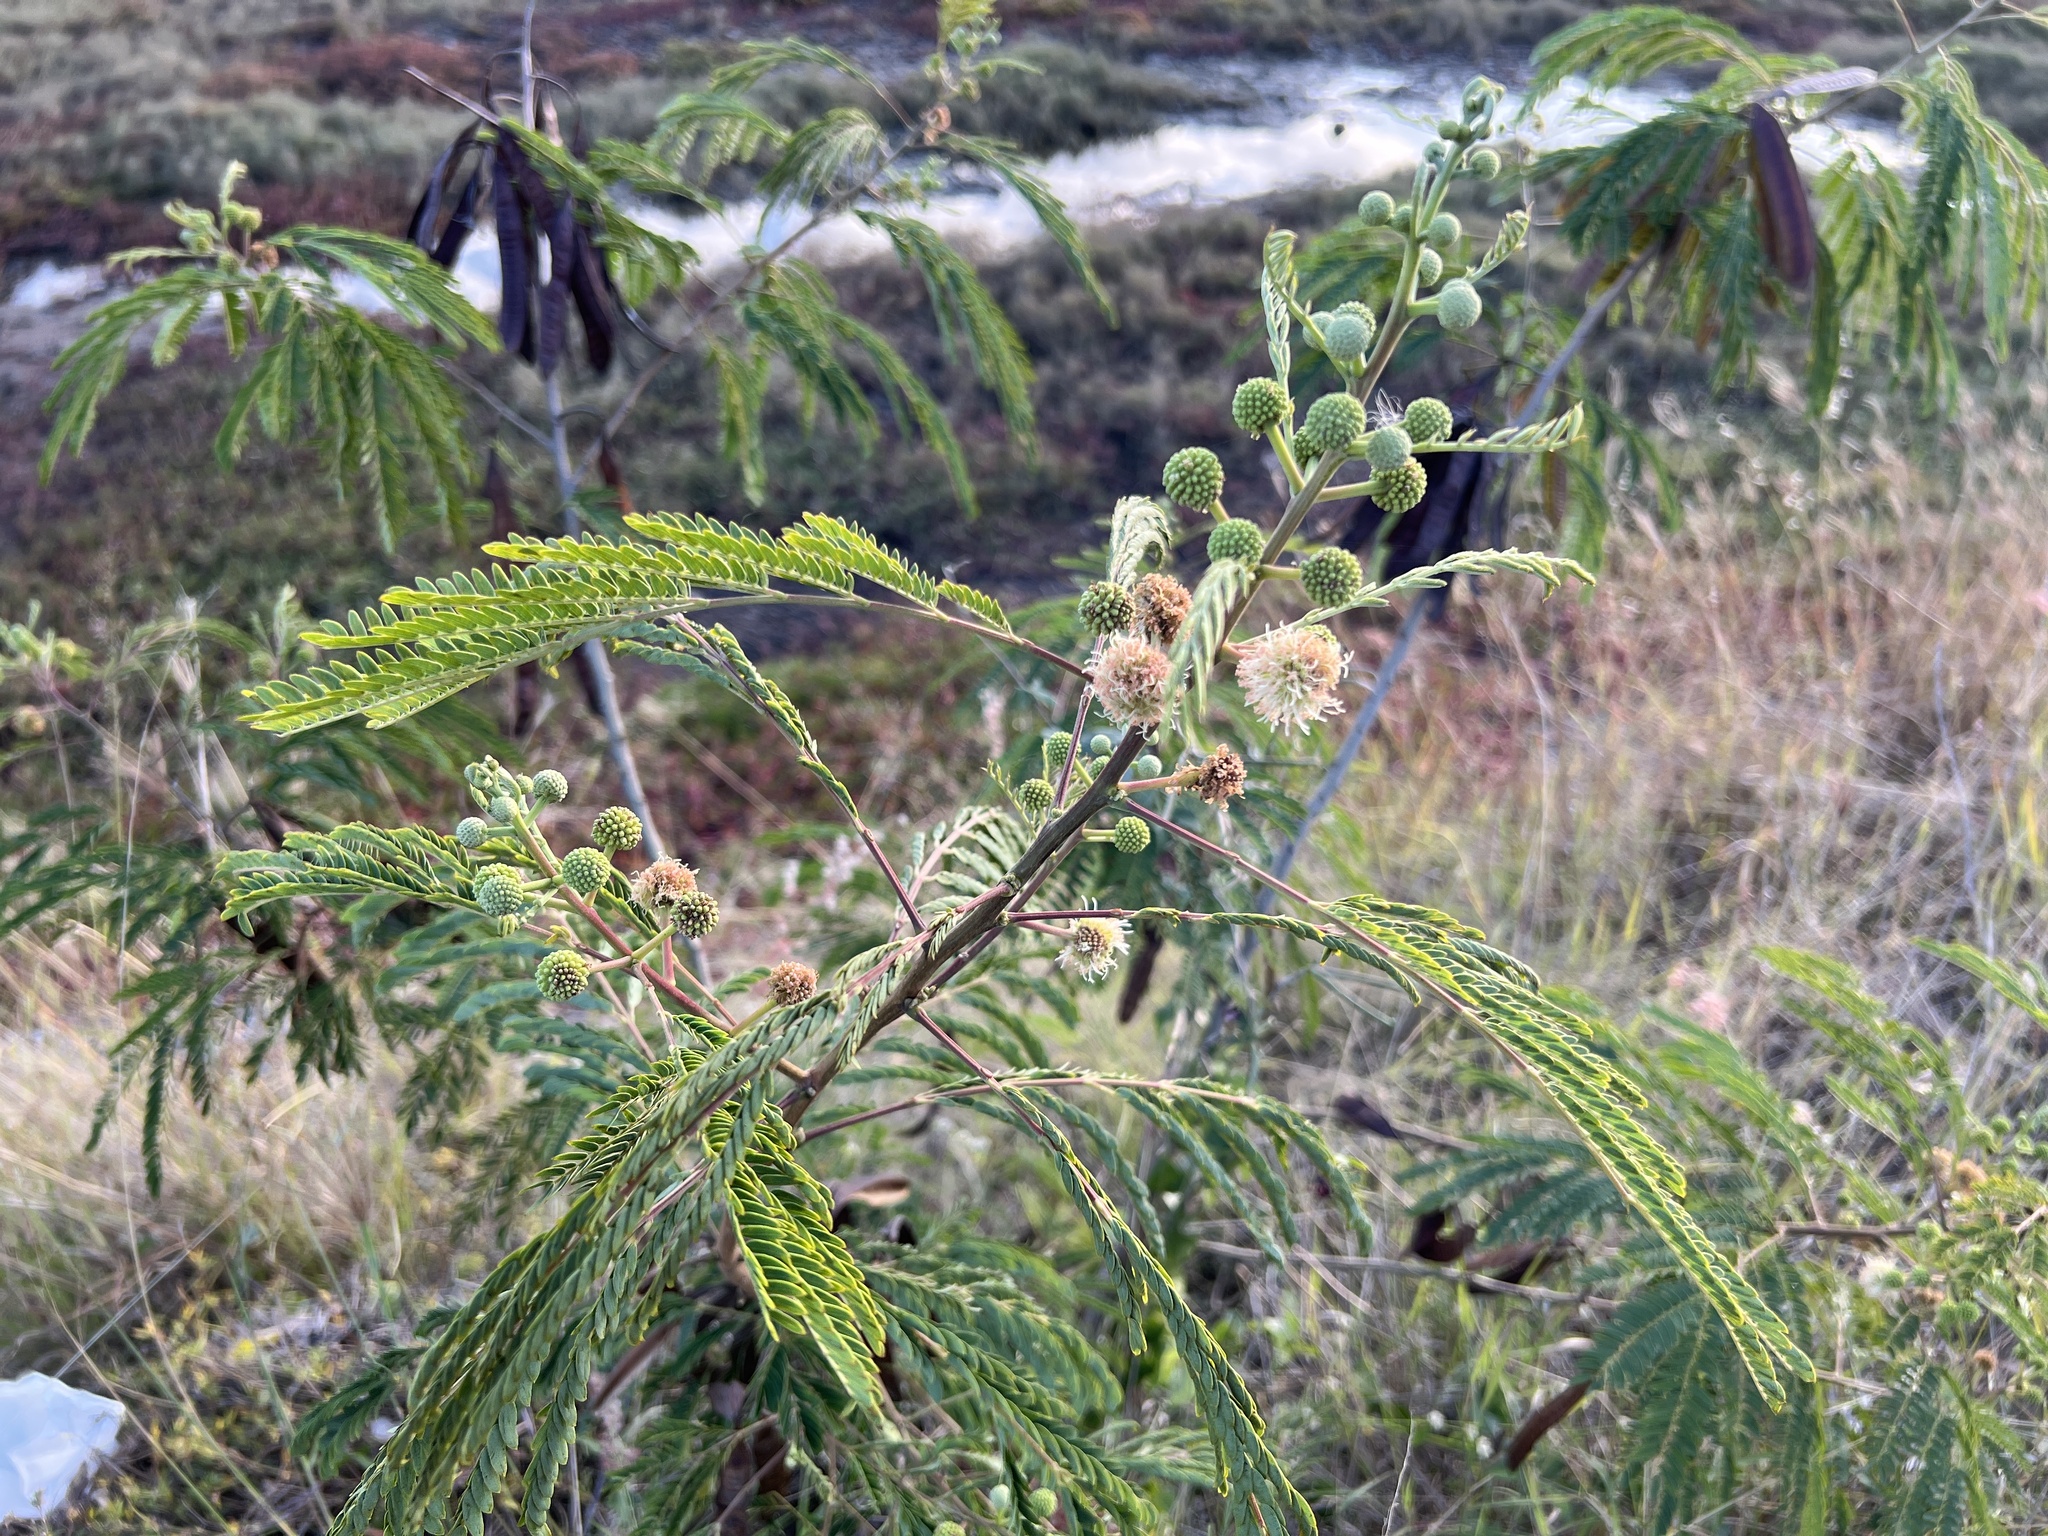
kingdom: Plantae
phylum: Tracheophyta
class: Magnoliopsida
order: Fabales
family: Fabaceae
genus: Leucaena
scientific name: Leucaena leucocephala
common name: White leadtree
